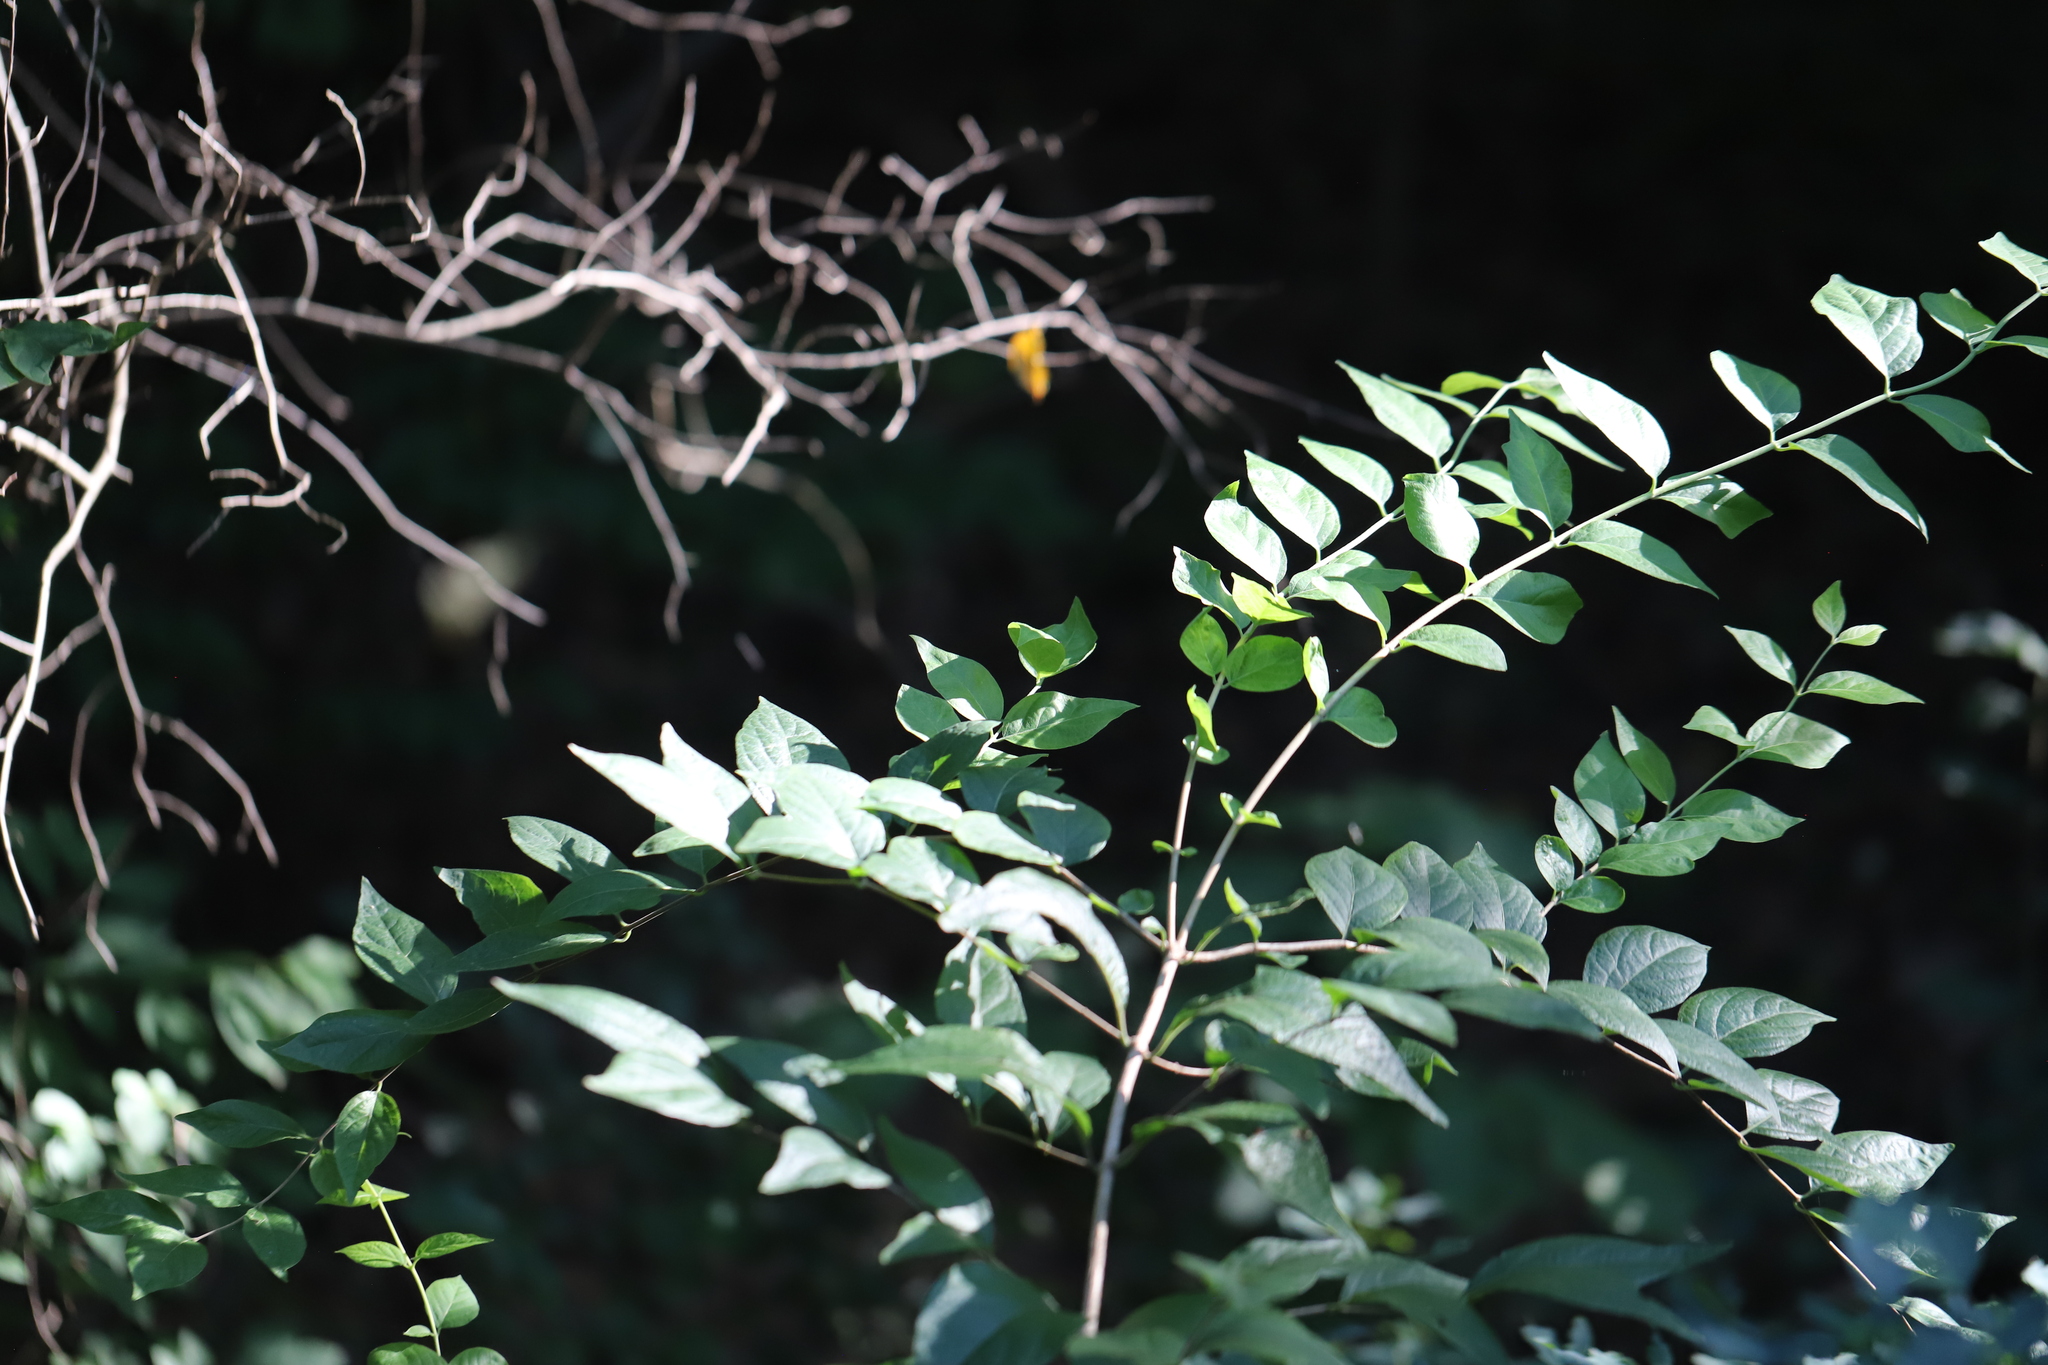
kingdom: Plantae
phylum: Tracheophyta
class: Magnoliopsida
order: Malvales
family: Malvaceae
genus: Hibiscus
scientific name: Hibiscus syriacus
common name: Syrian ketmia
